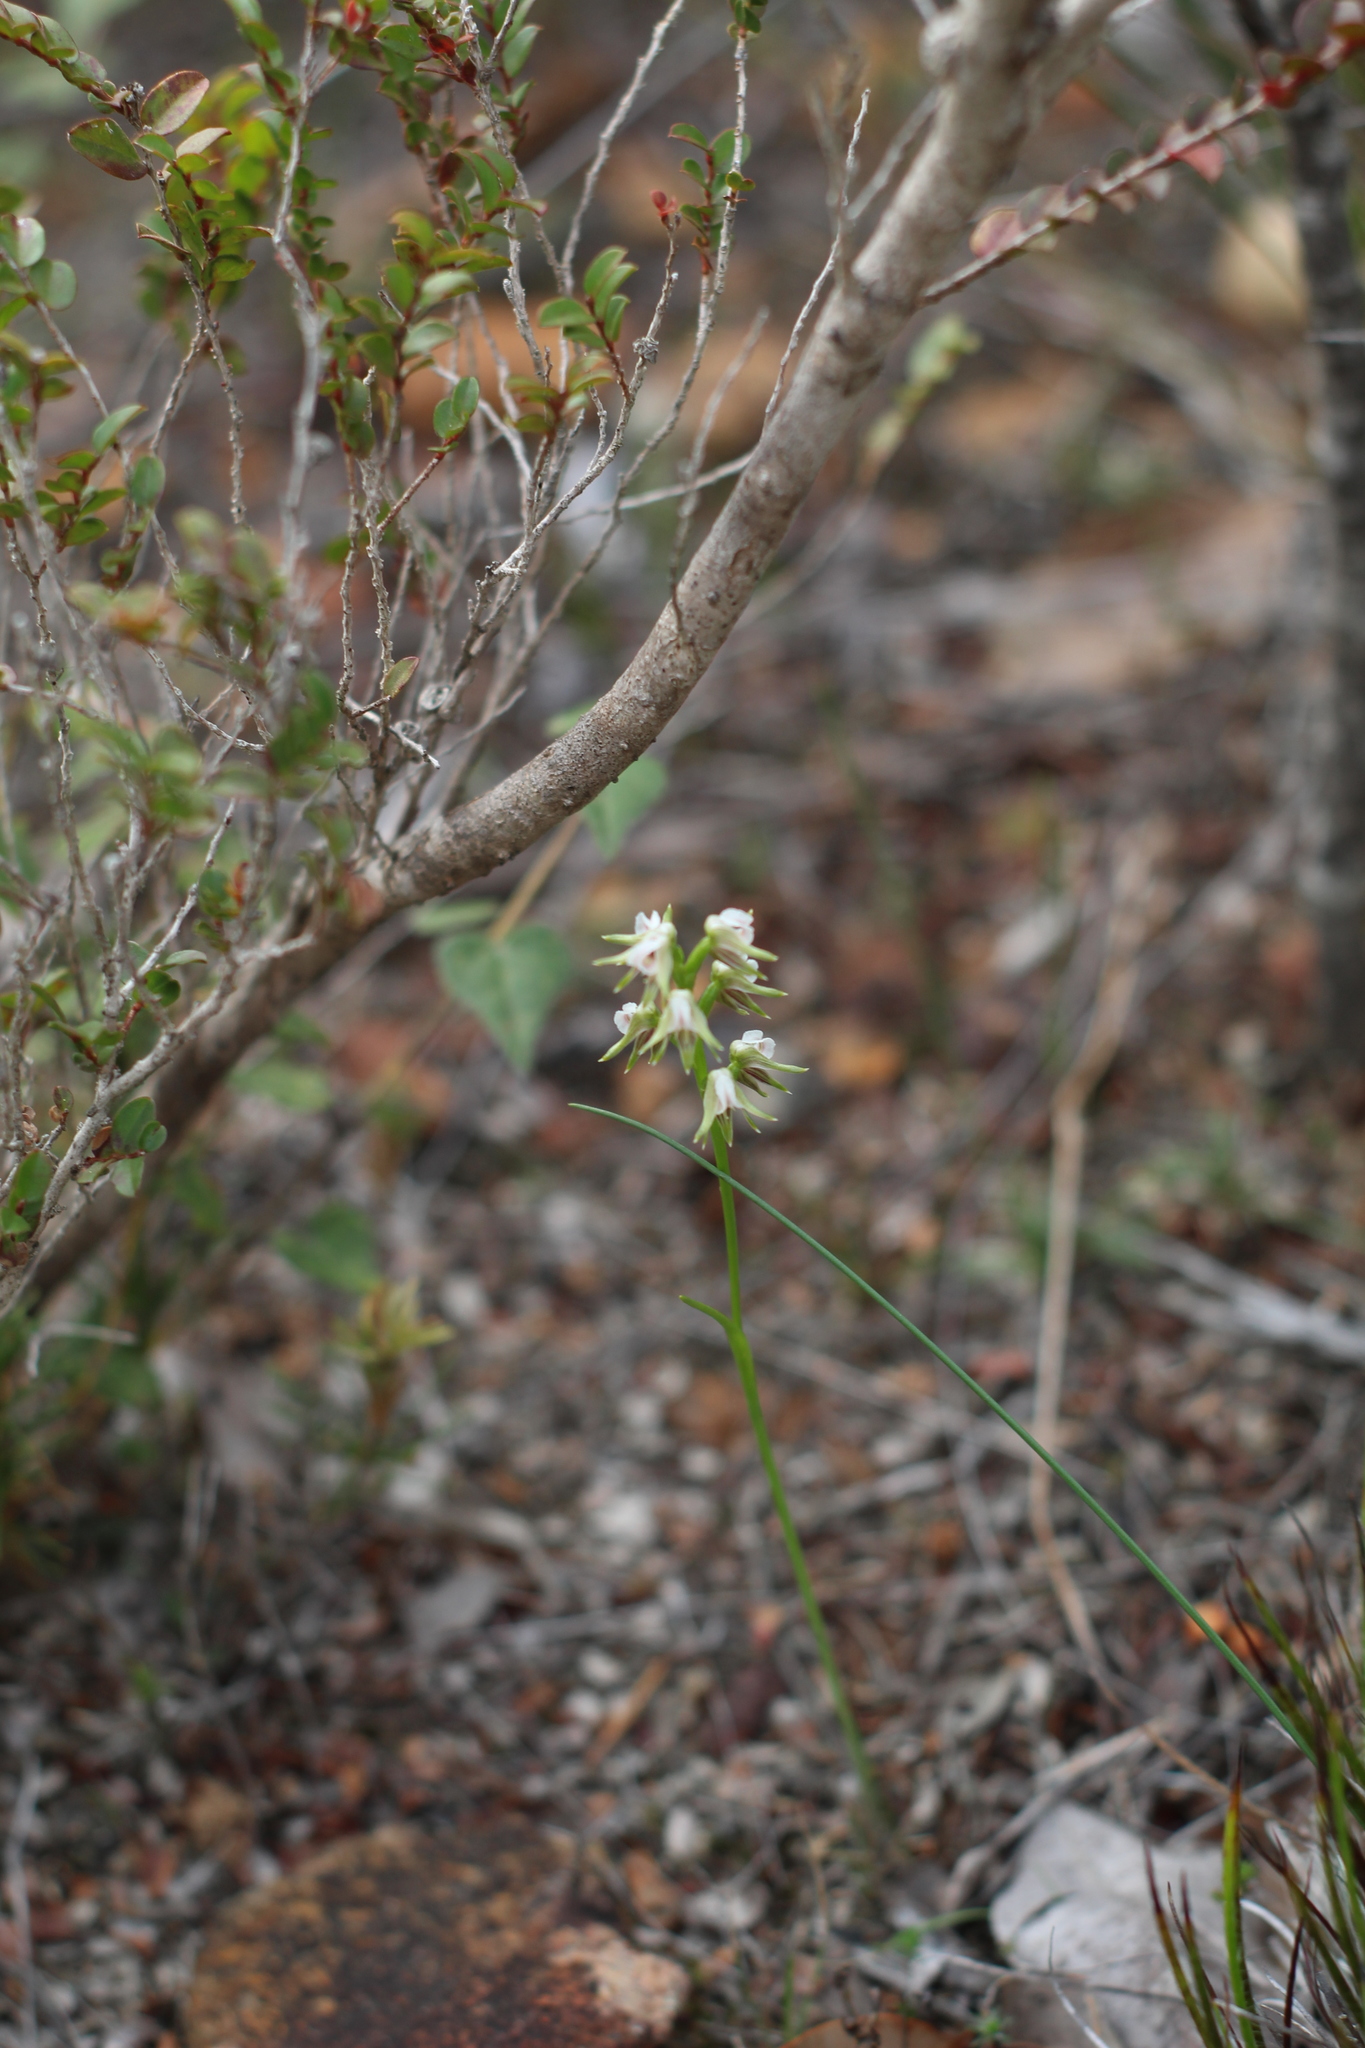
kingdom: Plantae
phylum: Tracheophyta
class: Liliopsida
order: Asparagales
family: Orchidaceae
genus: Prasophyllum
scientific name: Prasophyllum parvifolium
